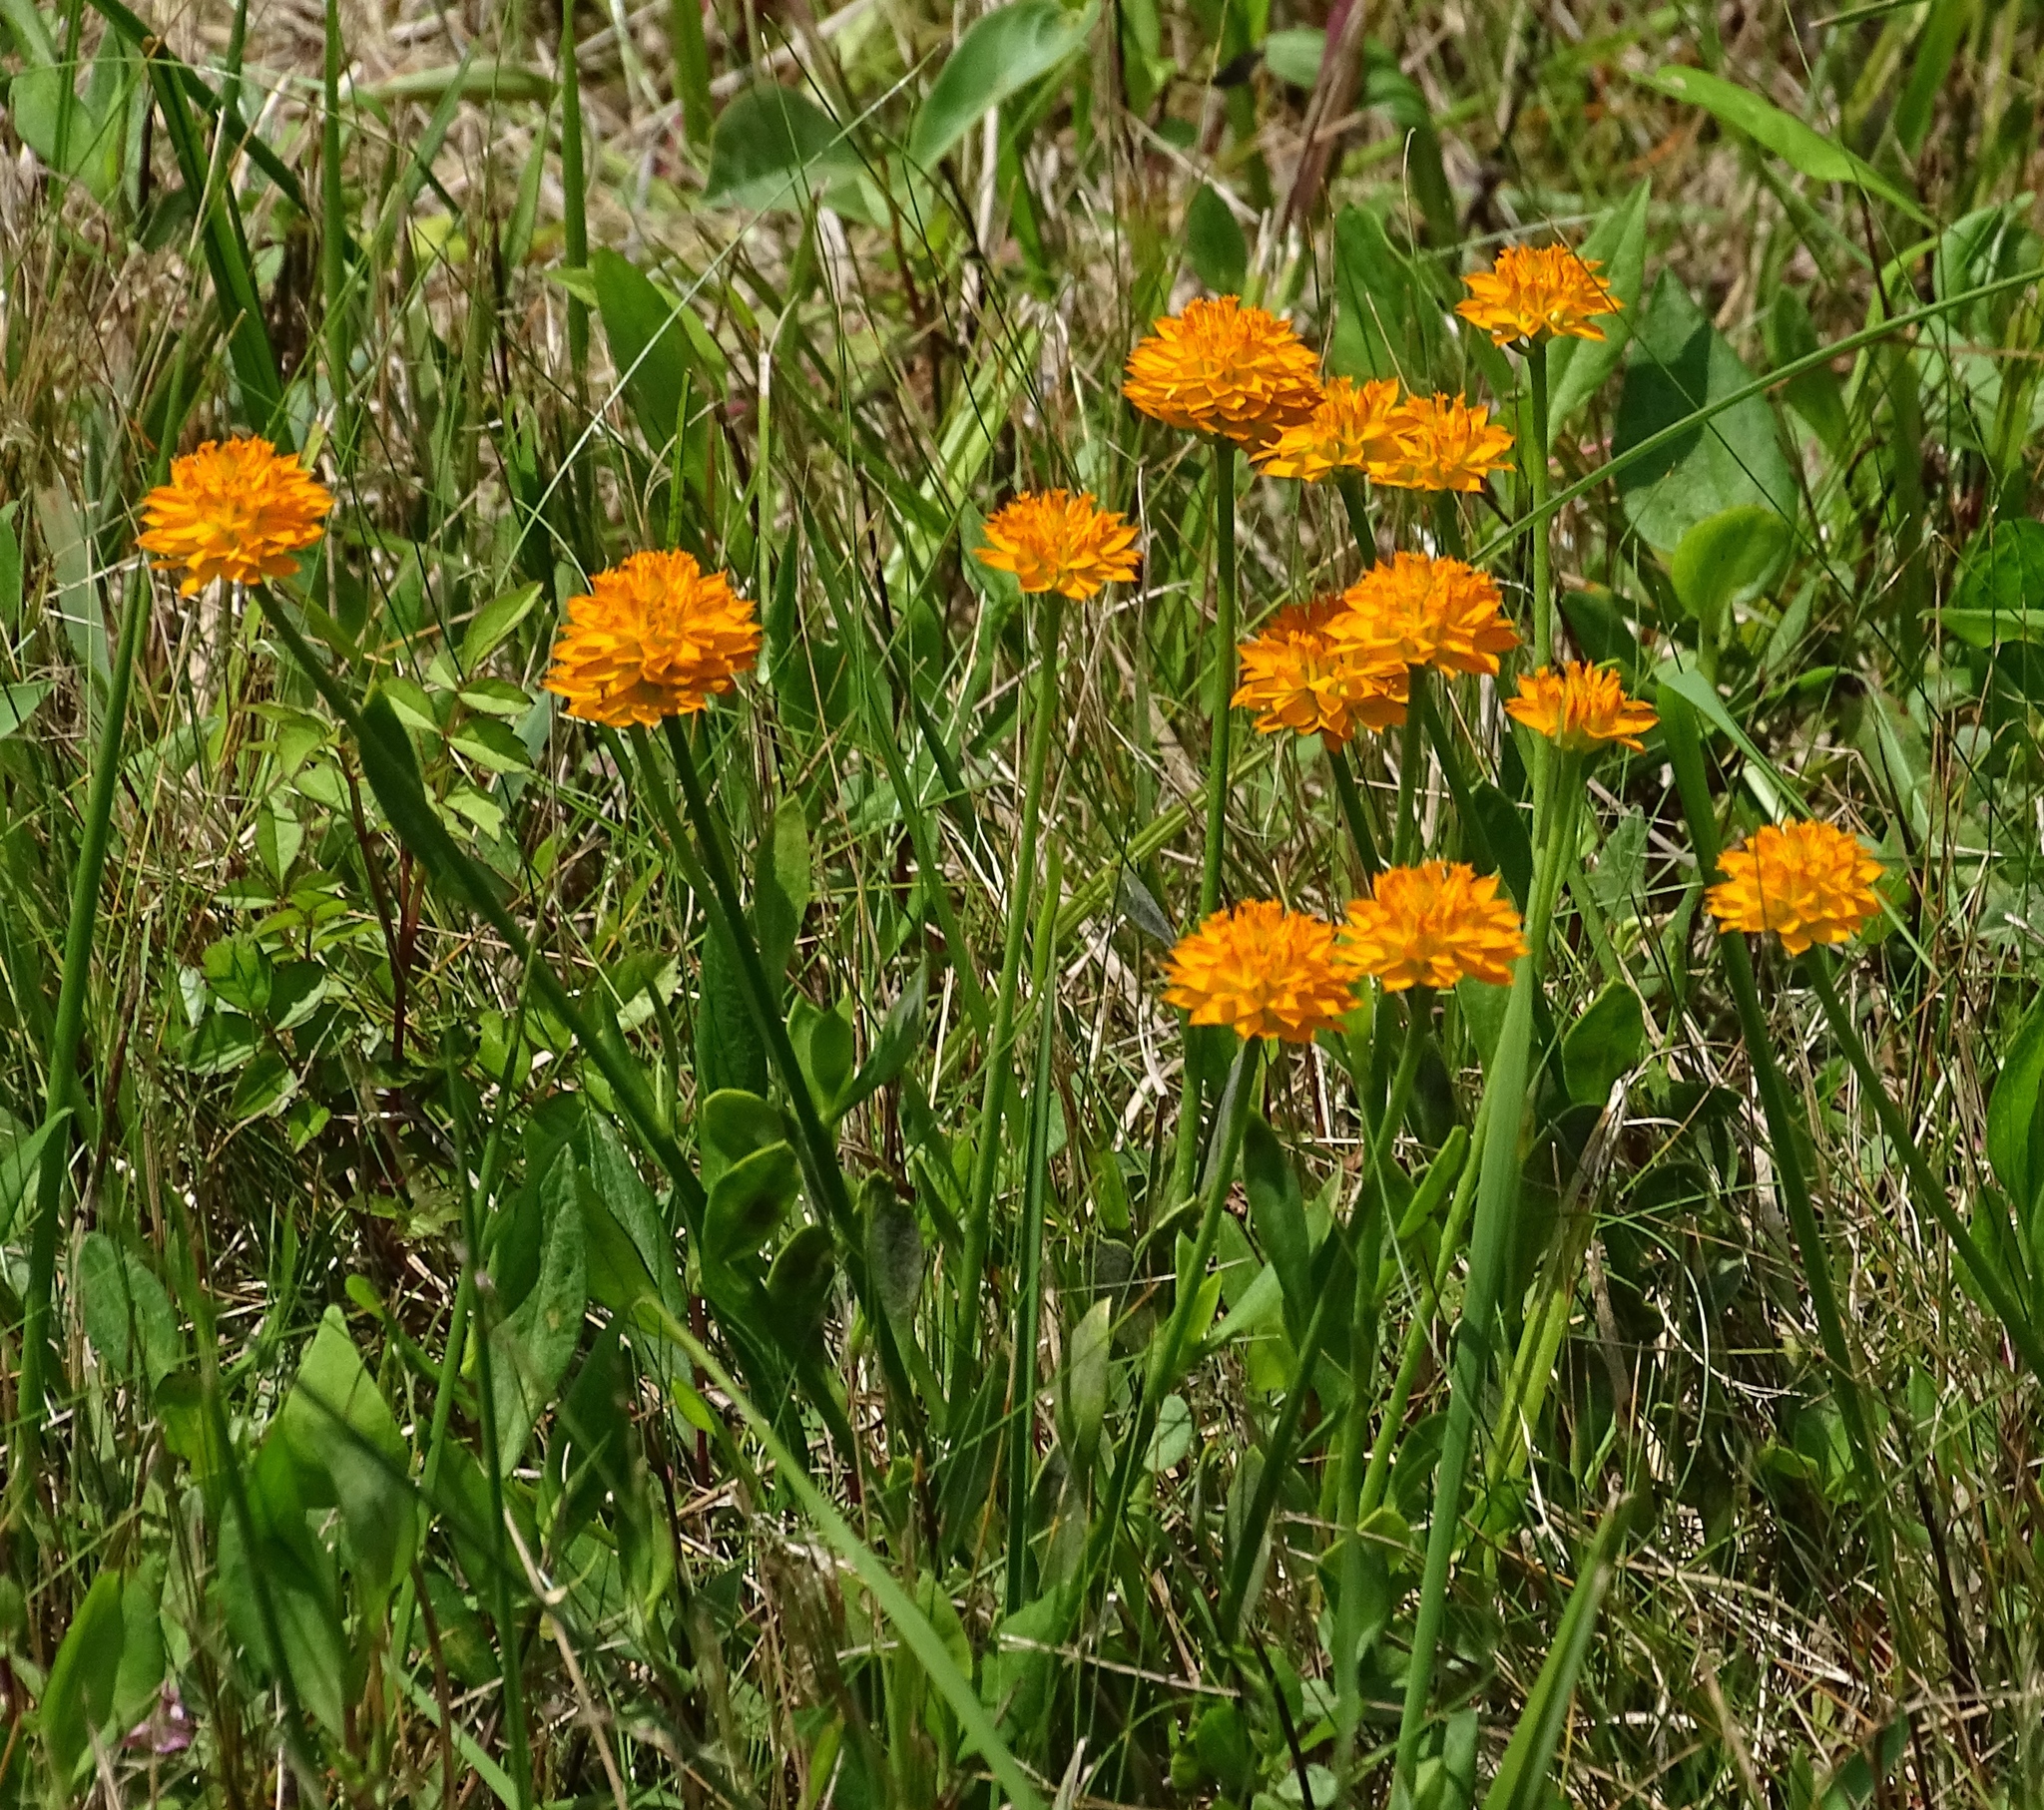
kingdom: Plantae
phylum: Tracheophyta
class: Magnoliopsida
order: Fabales
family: Polygalaceae
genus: Polygala
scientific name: Polygala lutea
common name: Orange milkwort
